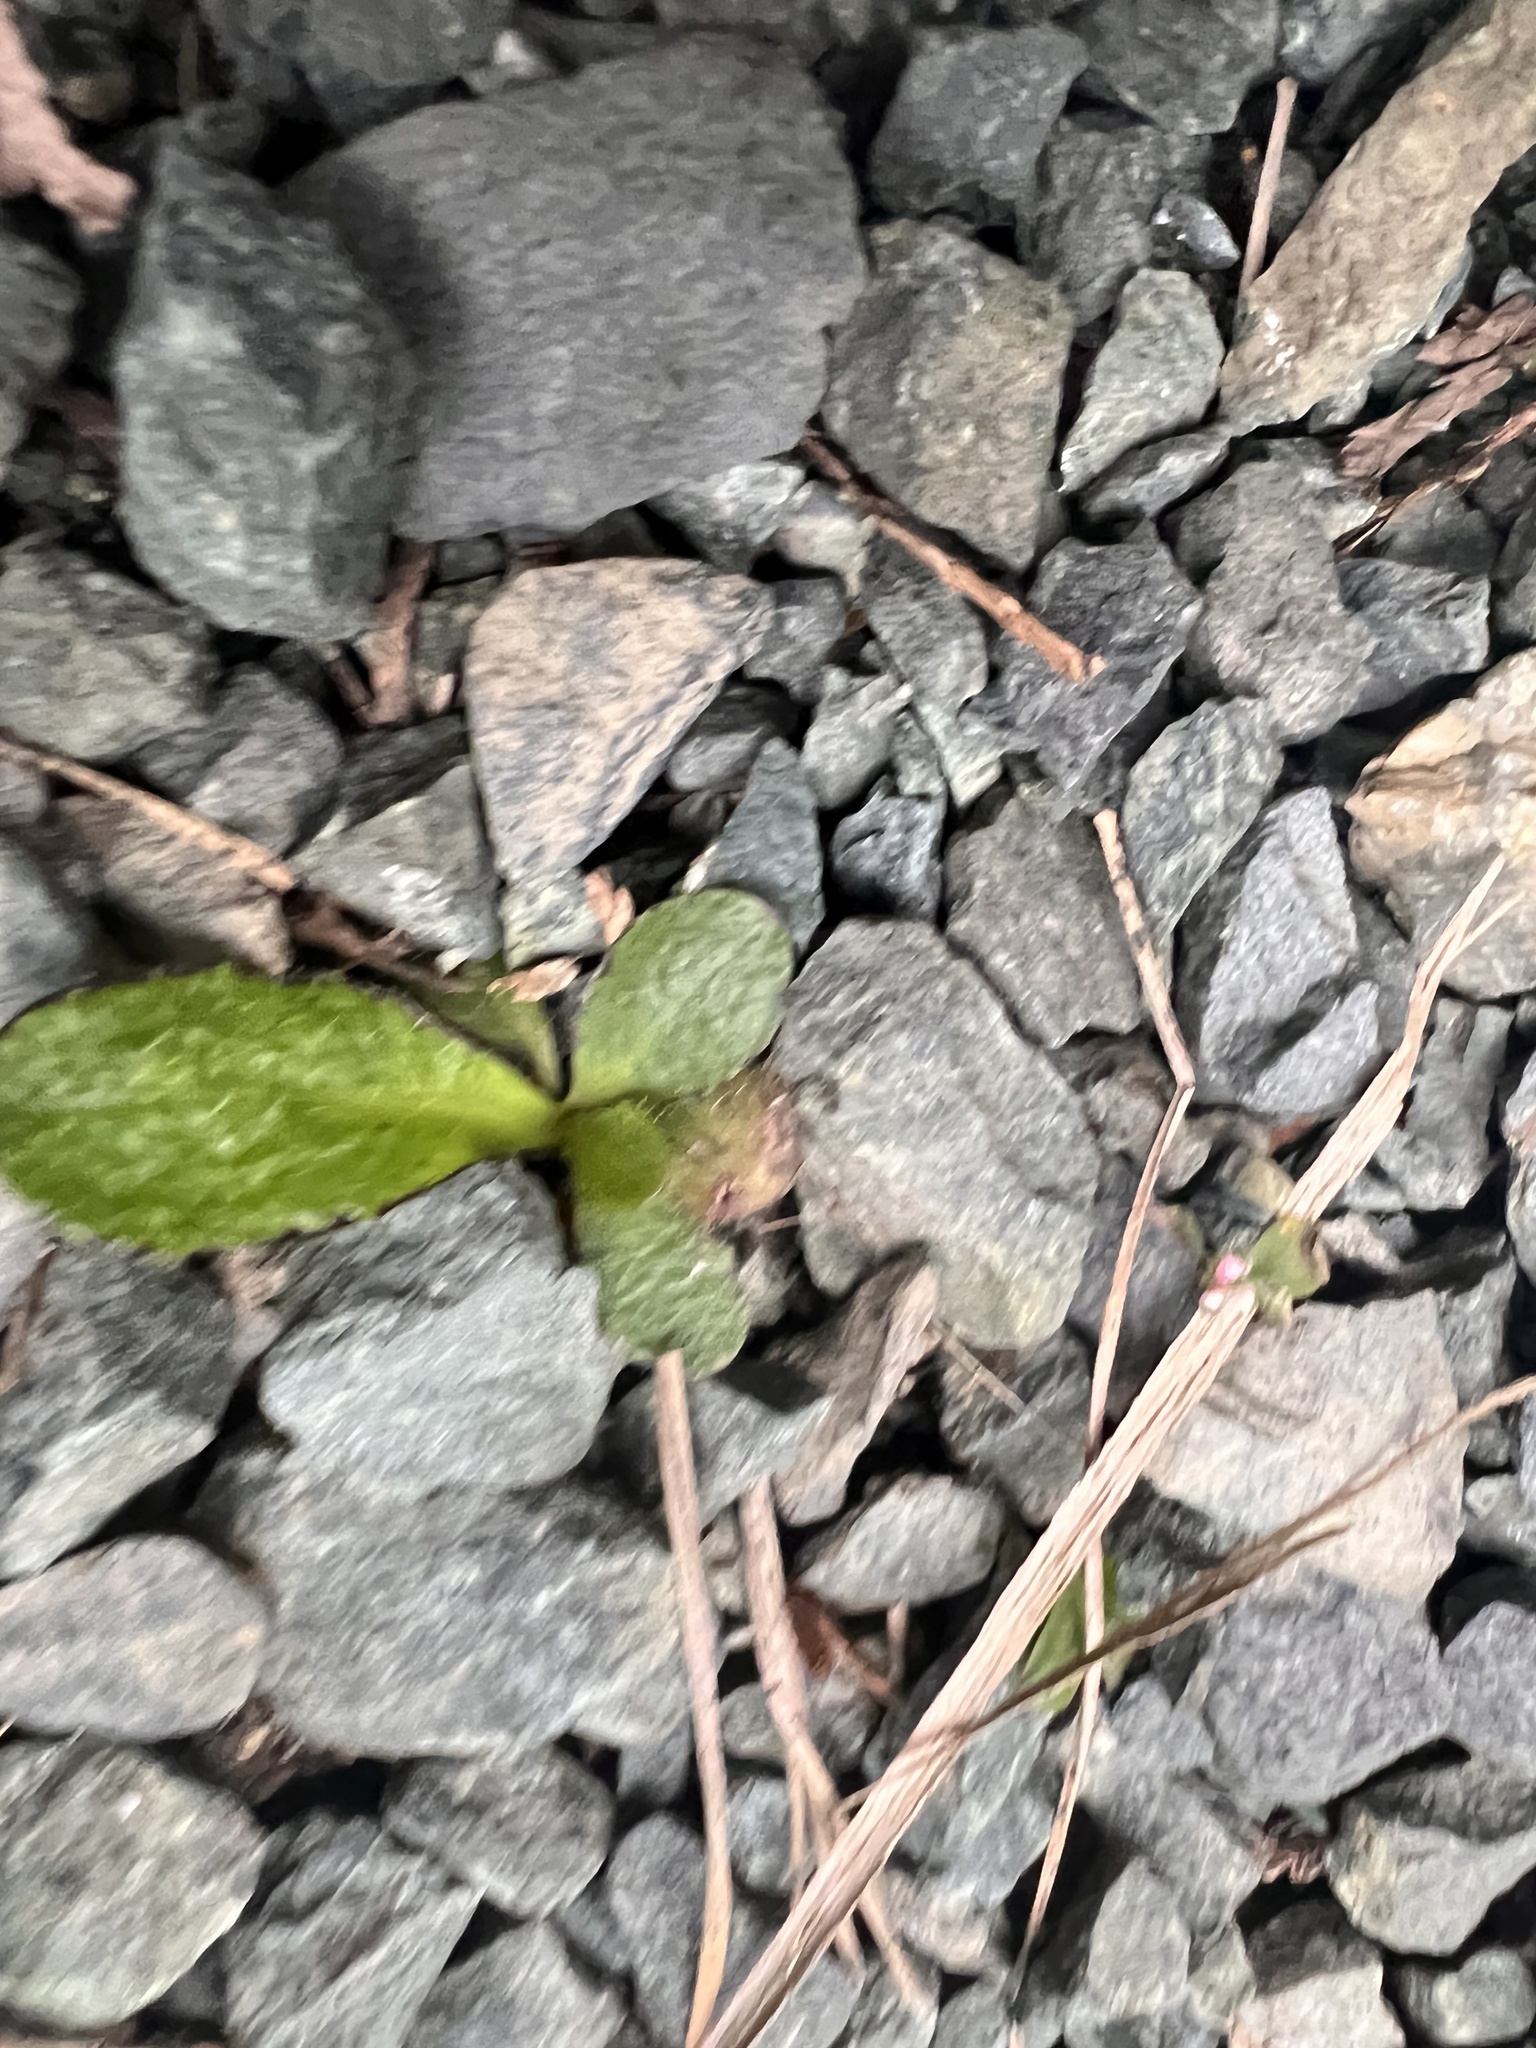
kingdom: Plantae
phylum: Tracheophyta
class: Magnoliopsida
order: Asterales
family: Asteraceae
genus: Hypochaeris
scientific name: Hypochaeris radicata
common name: Flatweed
